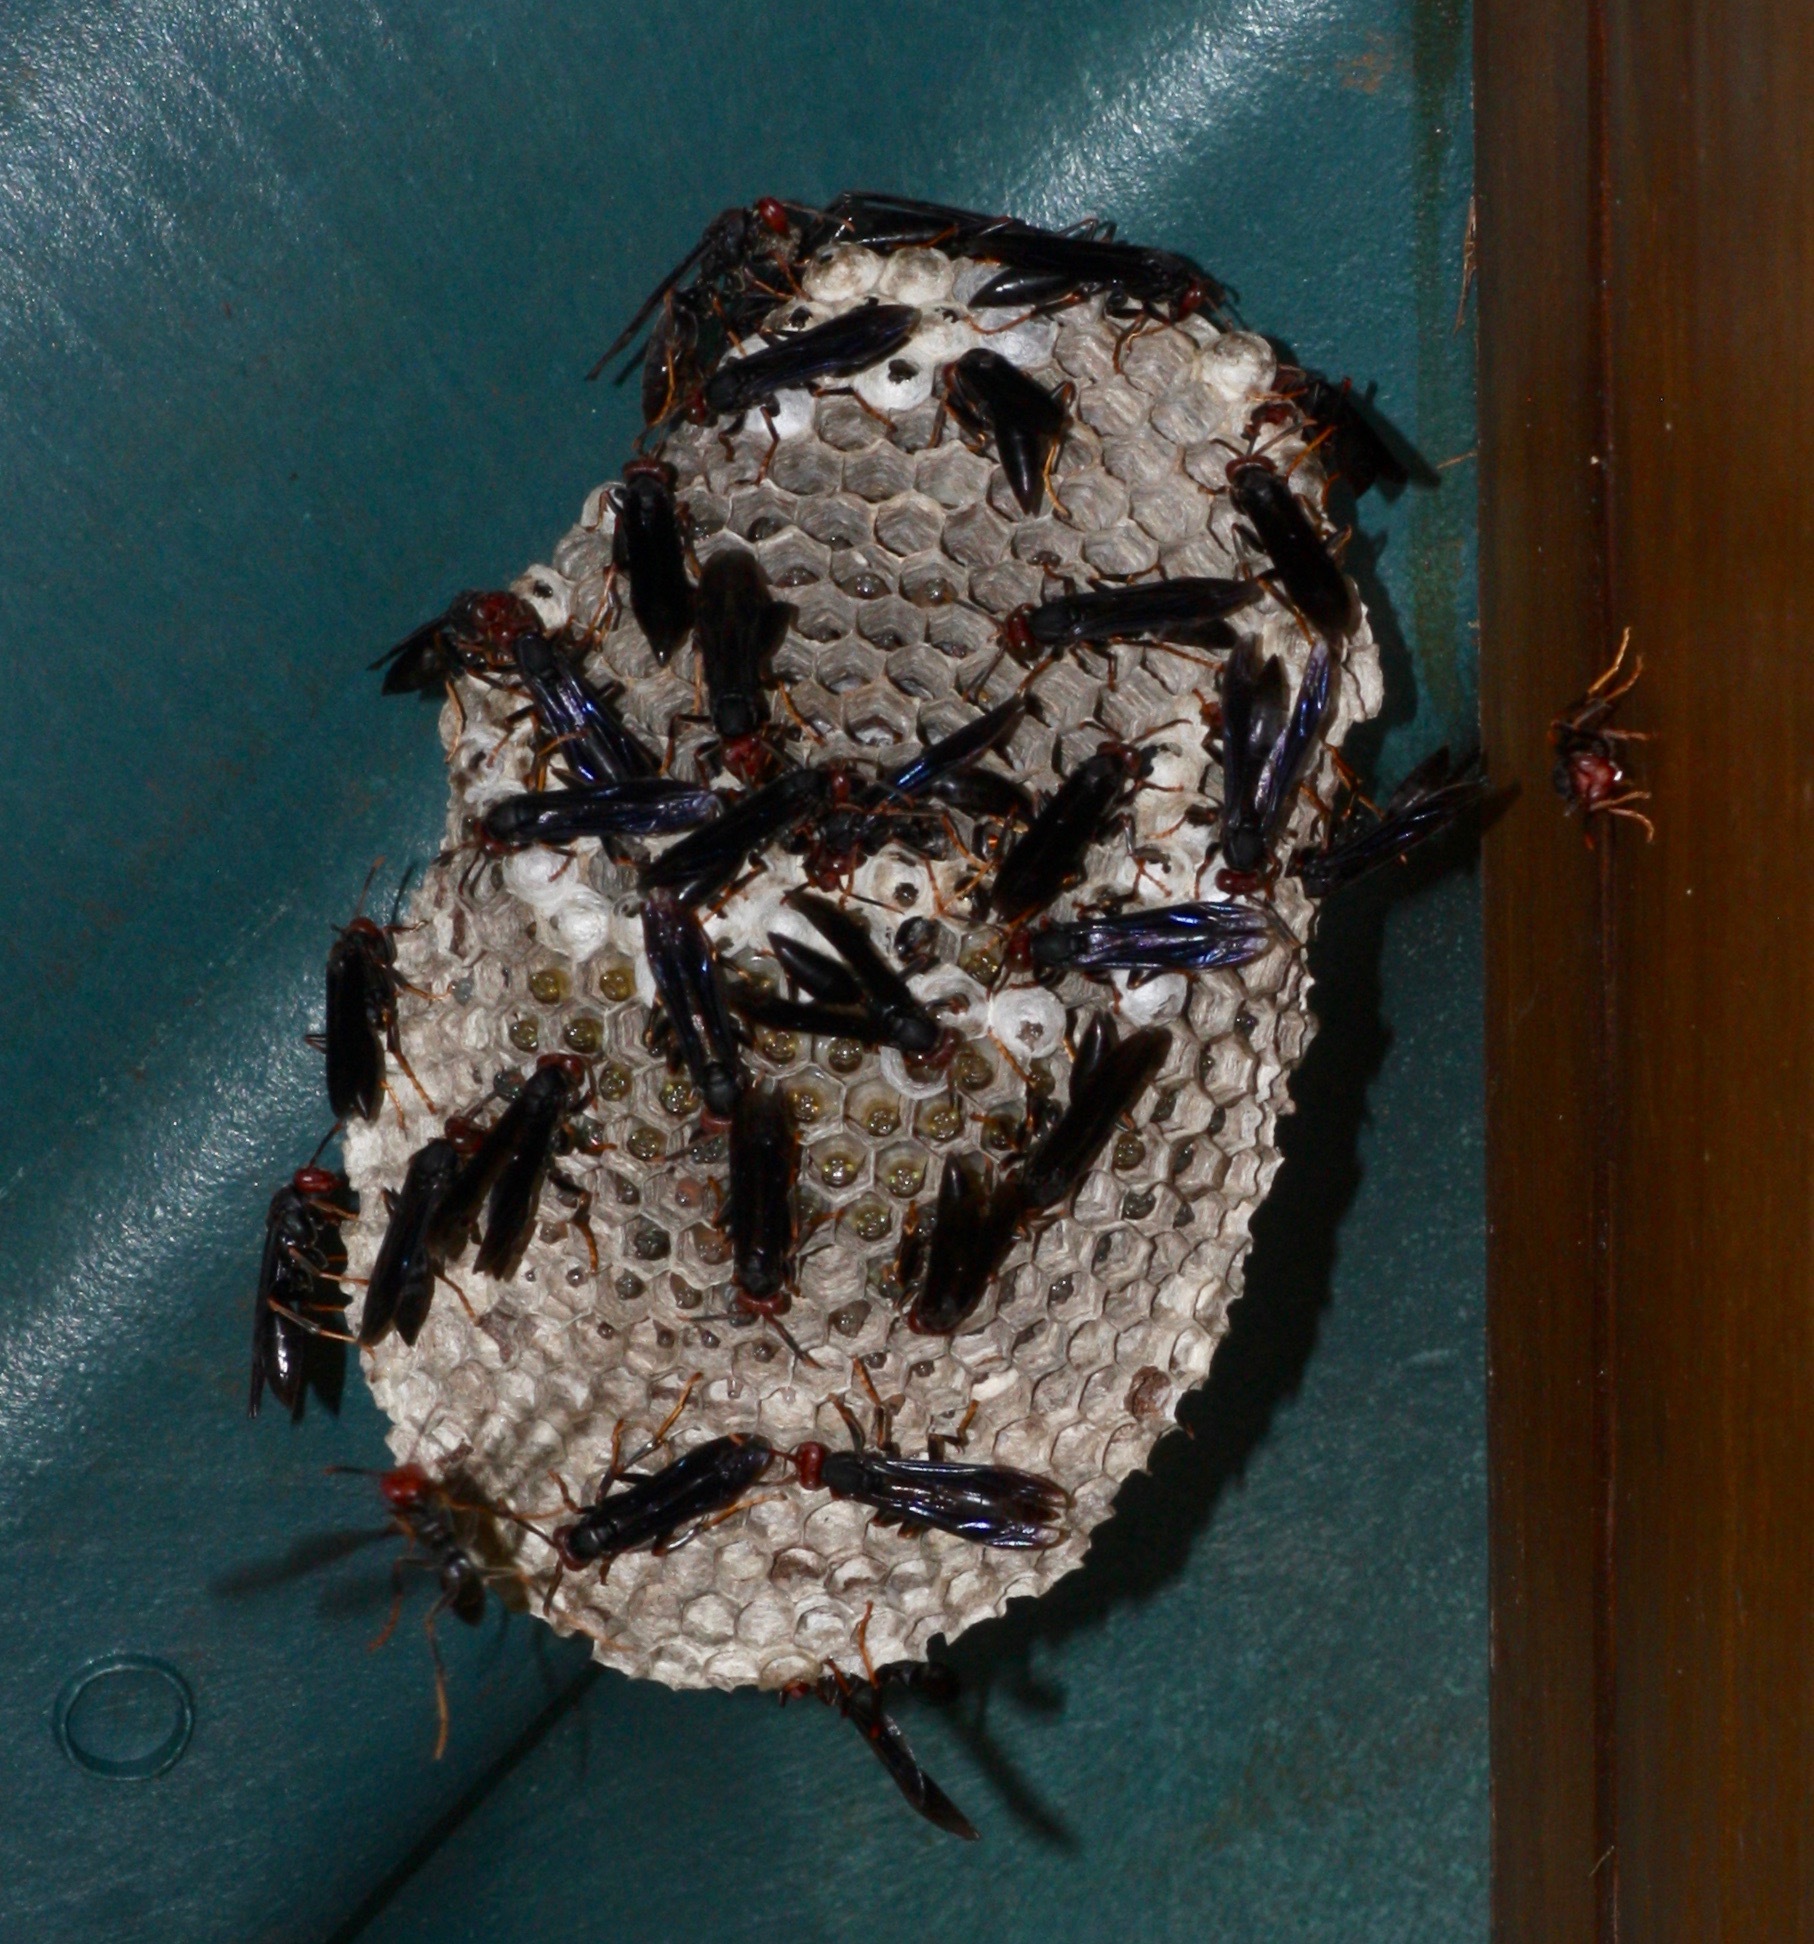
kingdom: Animalia
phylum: Arthropoda
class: Insecta
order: Hymenoptera
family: Eumenidae
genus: Polistes
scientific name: Polistes erythrocephalus
